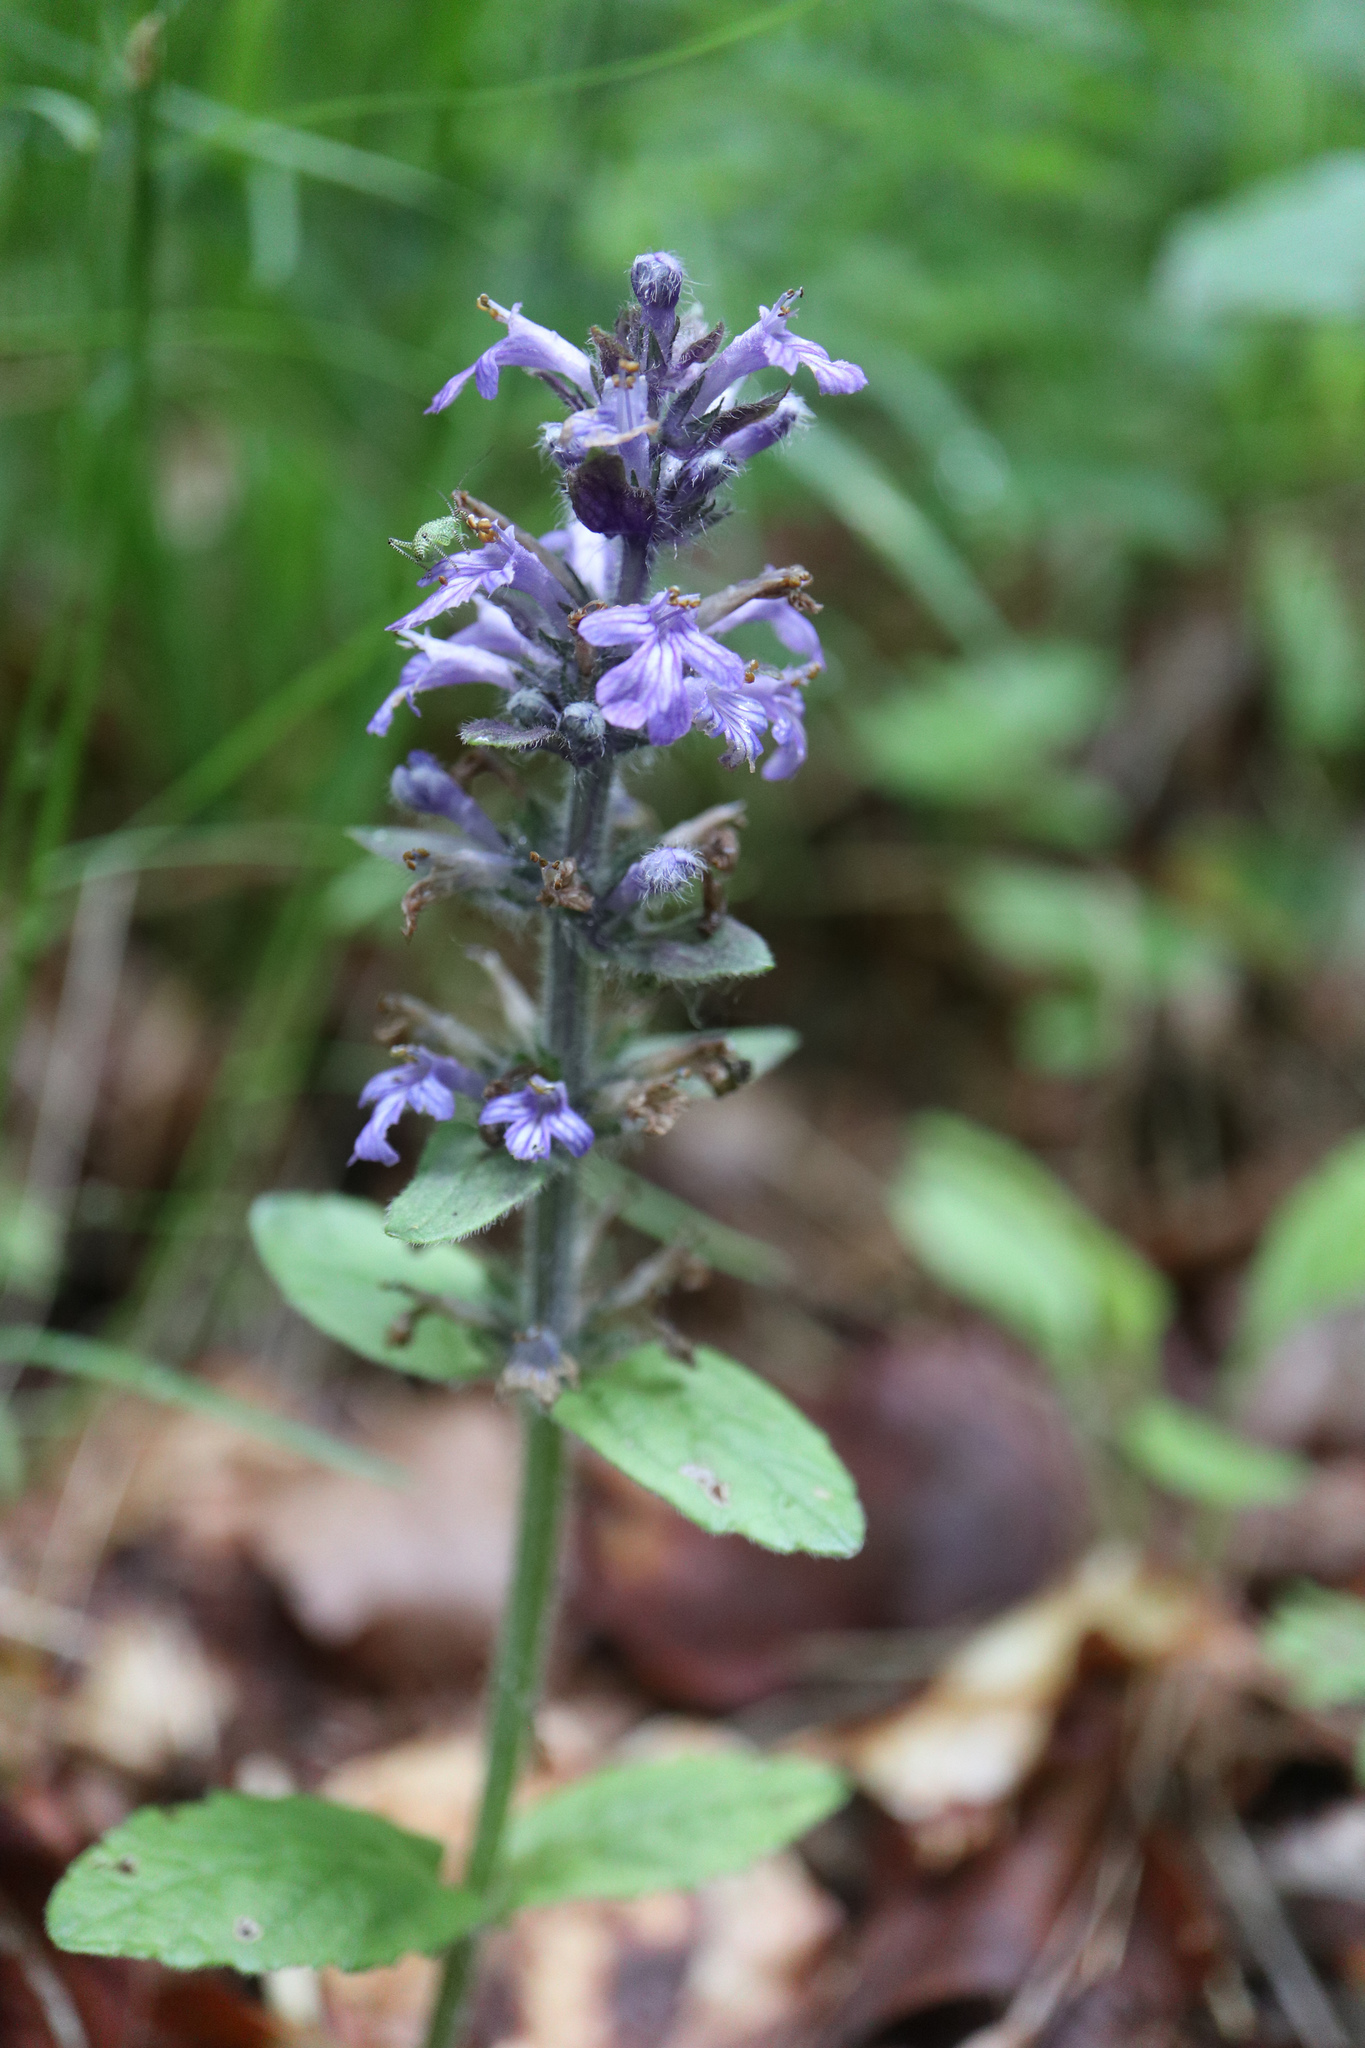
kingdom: Plantae
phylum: Tracheophyta
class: Magnoliopsida
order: Lamiales
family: Lamiaceae
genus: Ajuga
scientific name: Ajuga reptans
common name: Bugle
